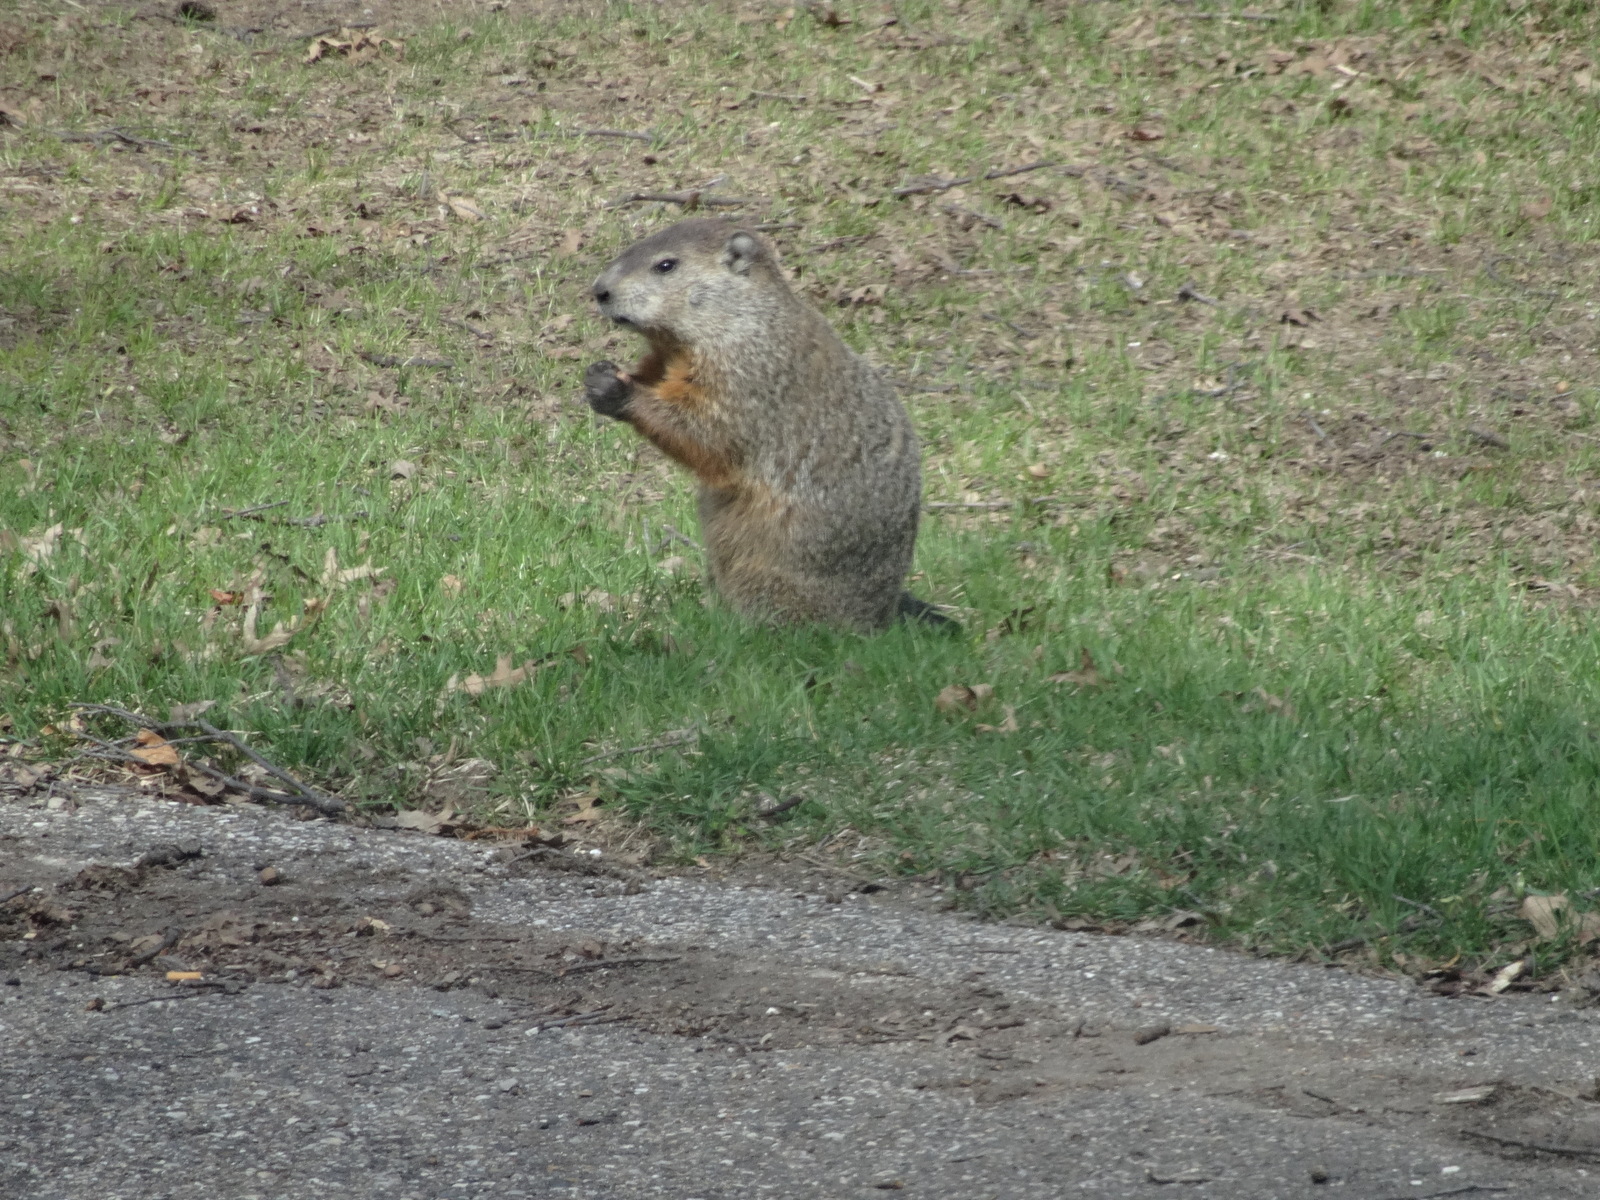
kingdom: Animalia
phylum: Chordata
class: Mammalia
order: Rodentia
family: Sciuridae
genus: Marmota
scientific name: Marmota monax
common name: Groundhog
